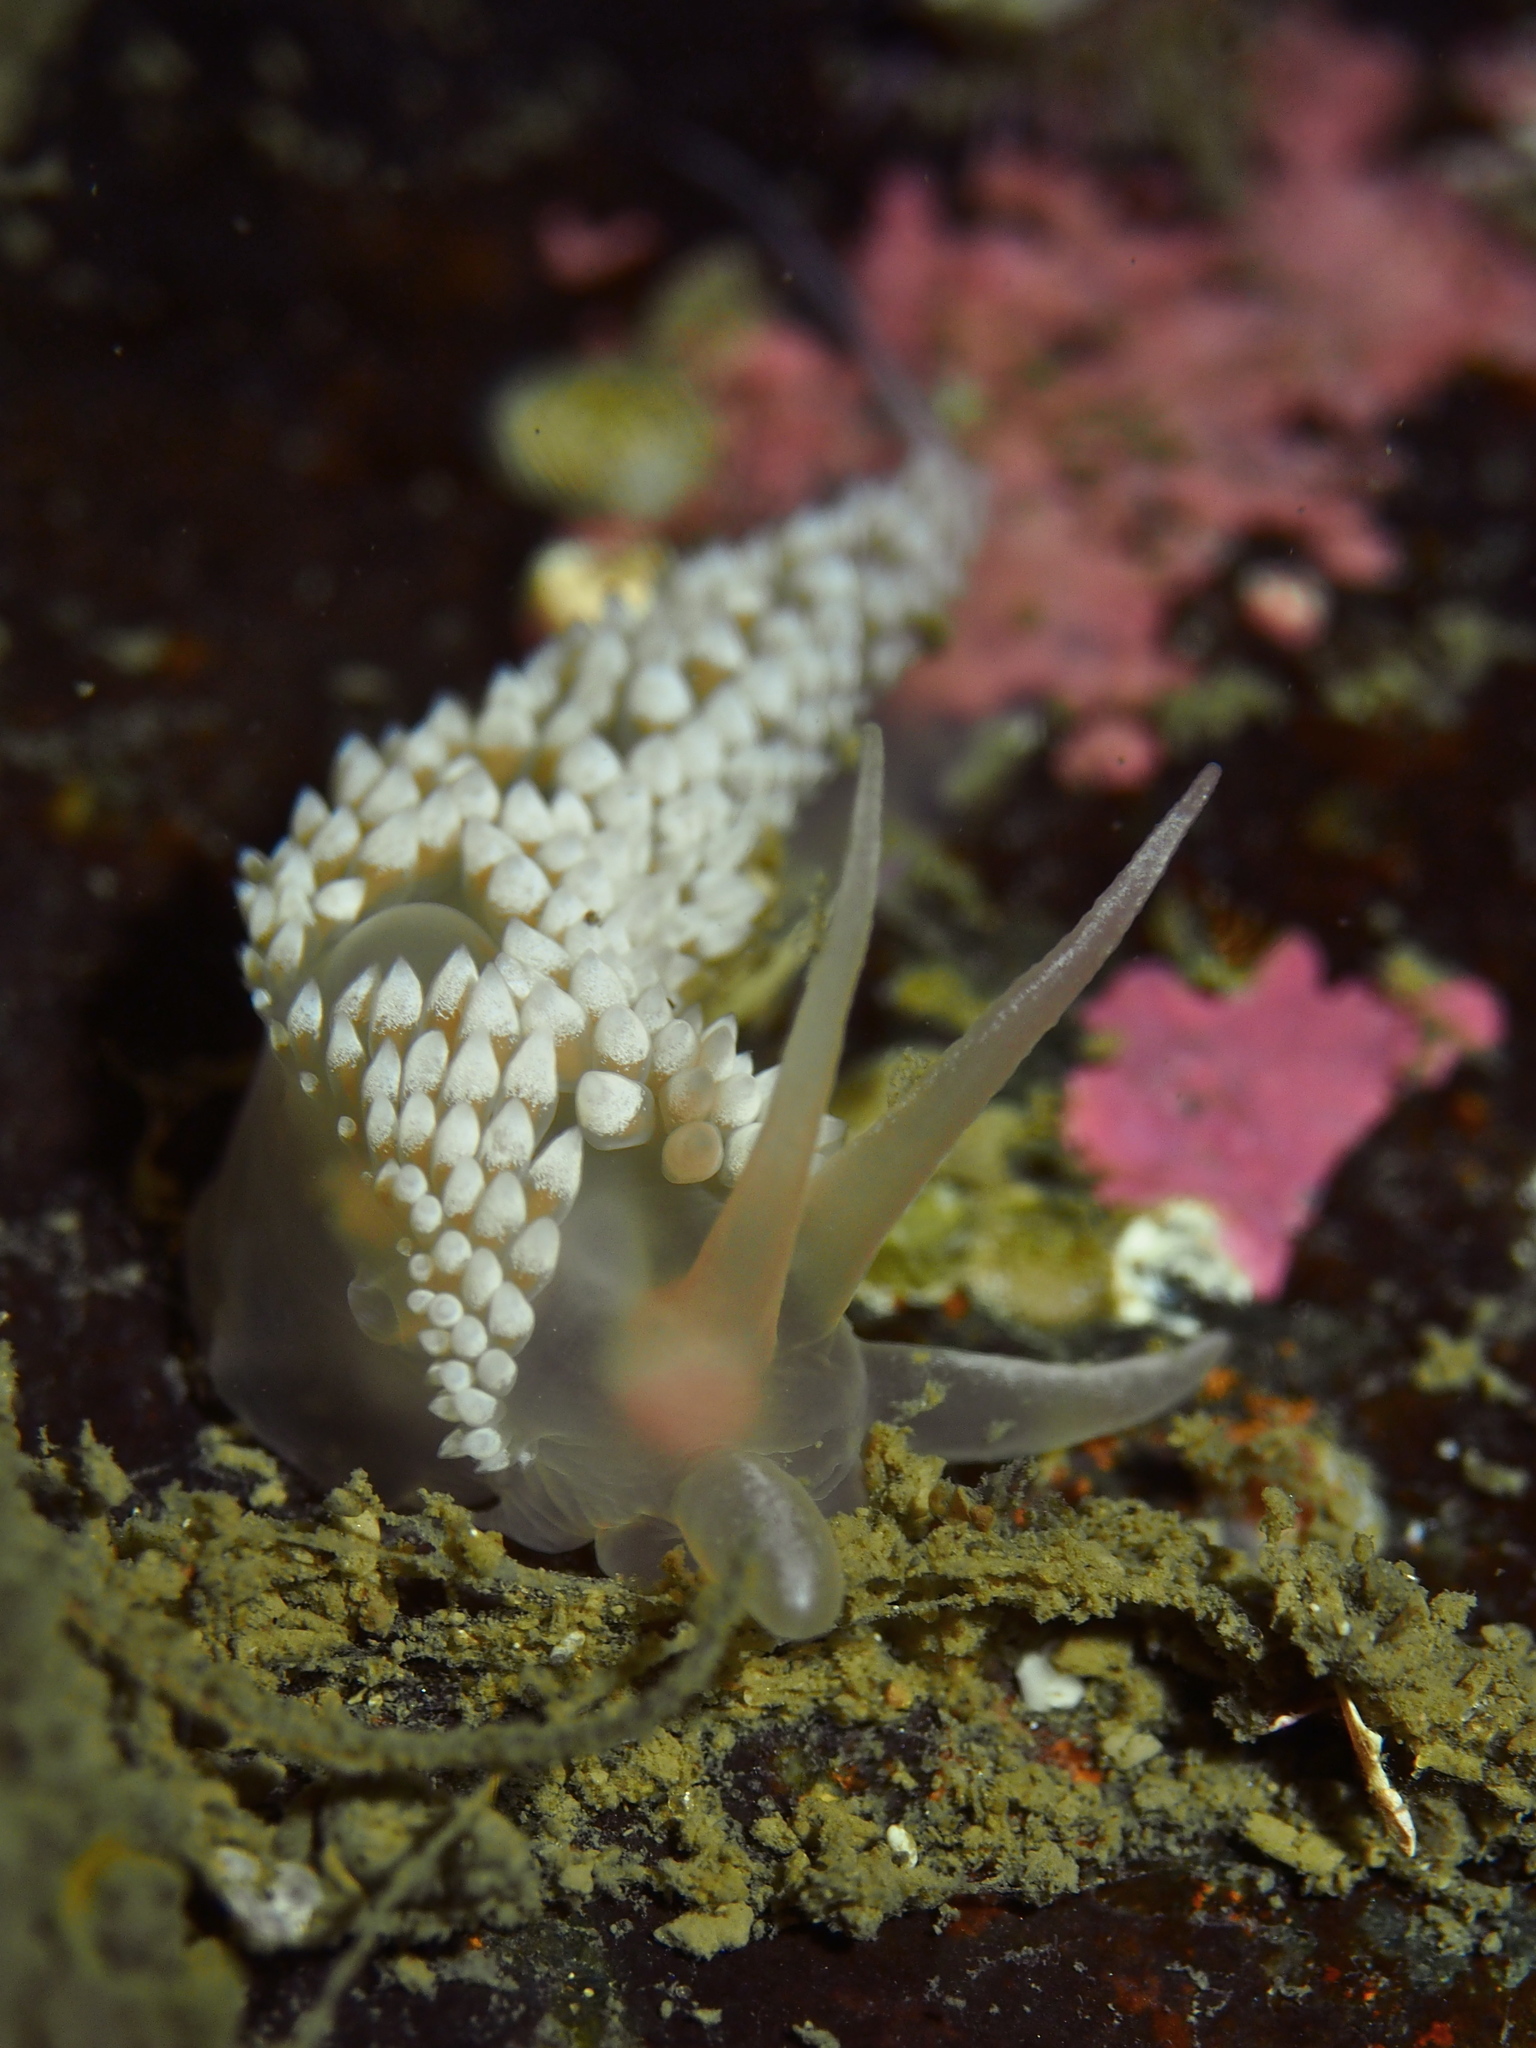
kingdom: Animalia
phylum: Mollusca
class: Gastropoda
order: Nudibranchia
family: Coryphellidae
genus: Coryphella
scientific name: Coryphella verrucosa
